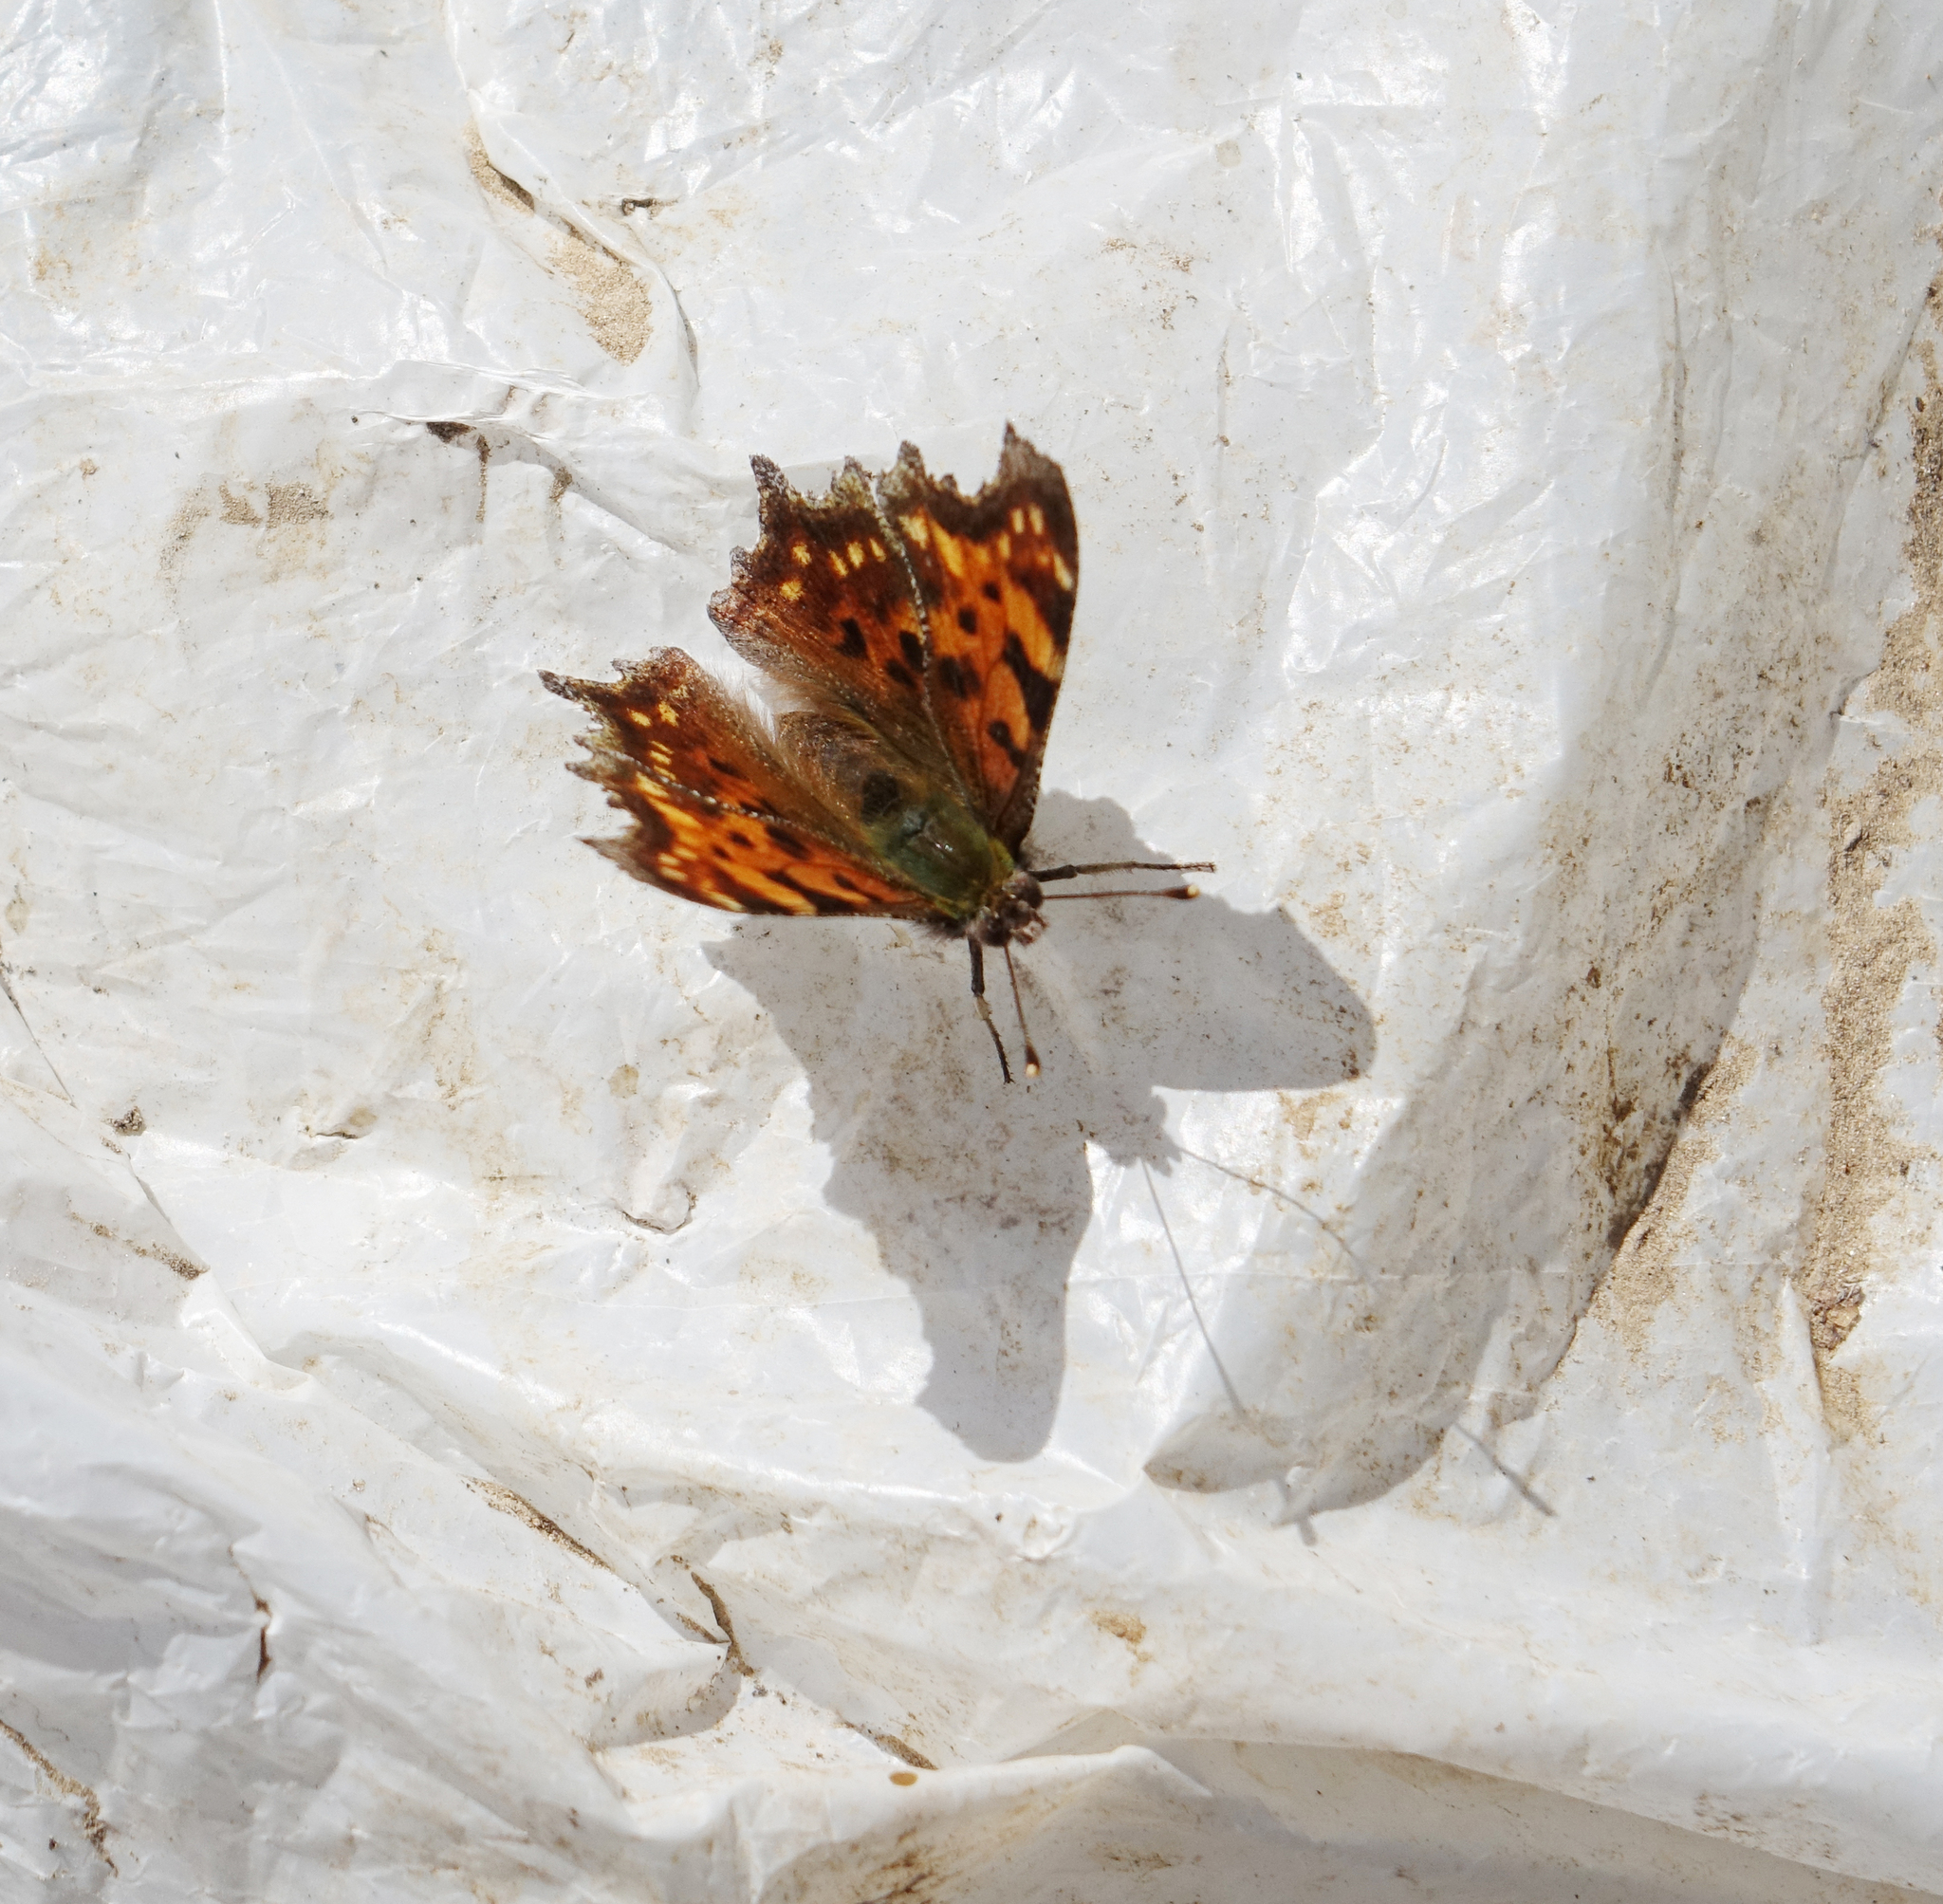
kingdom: Animalia
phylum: Arthropoda
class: Insecta
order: Lepidoptera
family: Nymphalidae
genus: Polygonia
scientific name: Polygonia c-album
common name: Comma
